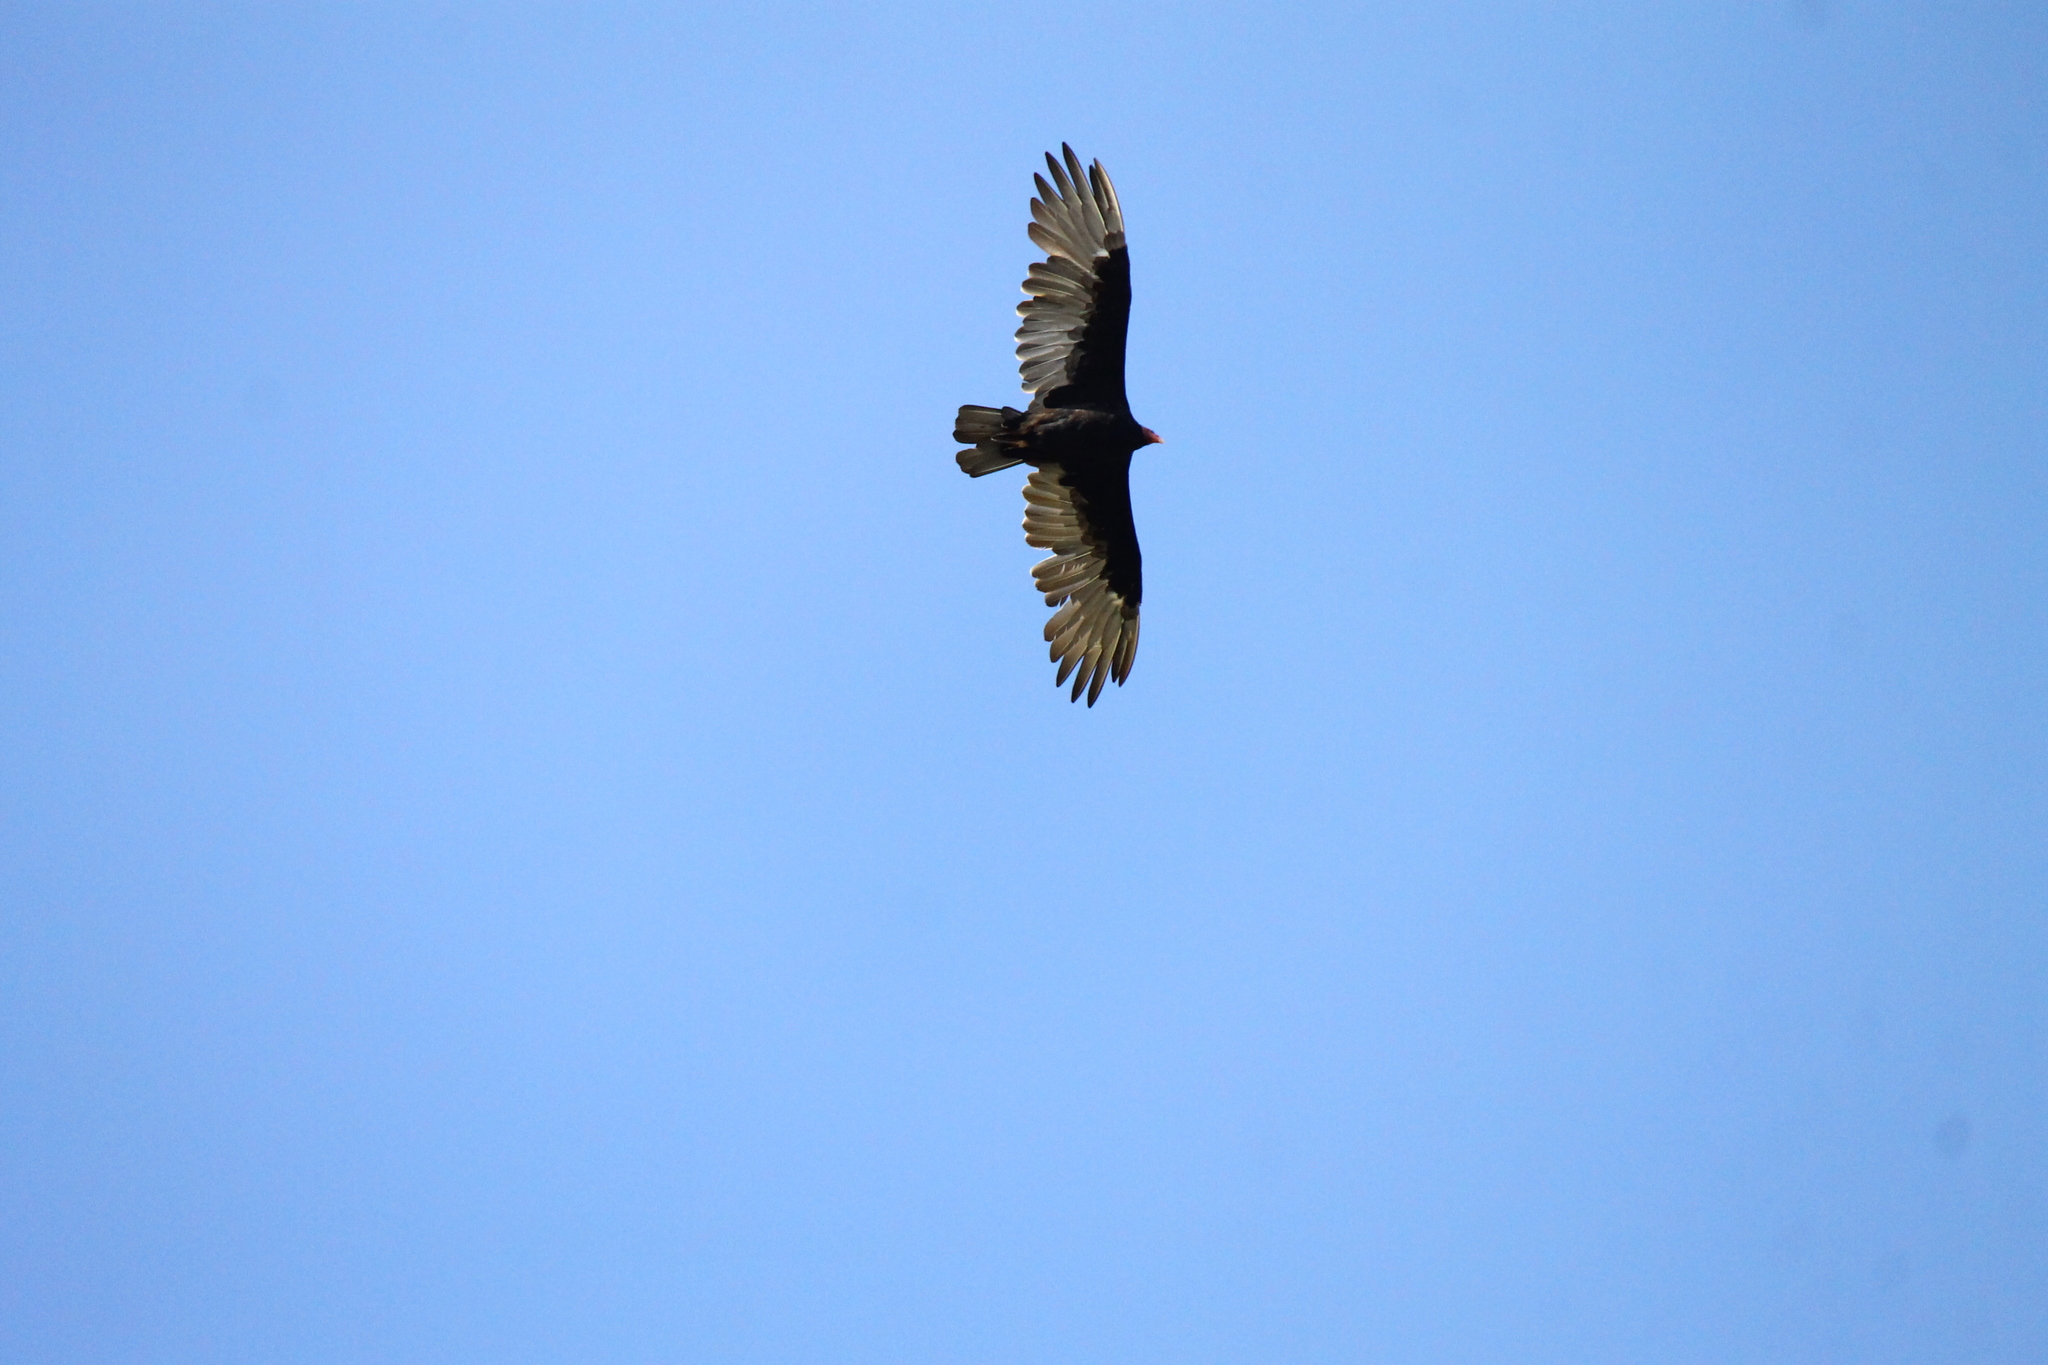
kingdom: Animalia
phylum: Chordata
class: Aves
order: Accipitriformes
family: Cathartidae
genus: Cathartes
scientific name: Cathartes aura
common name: Turkey vulture
